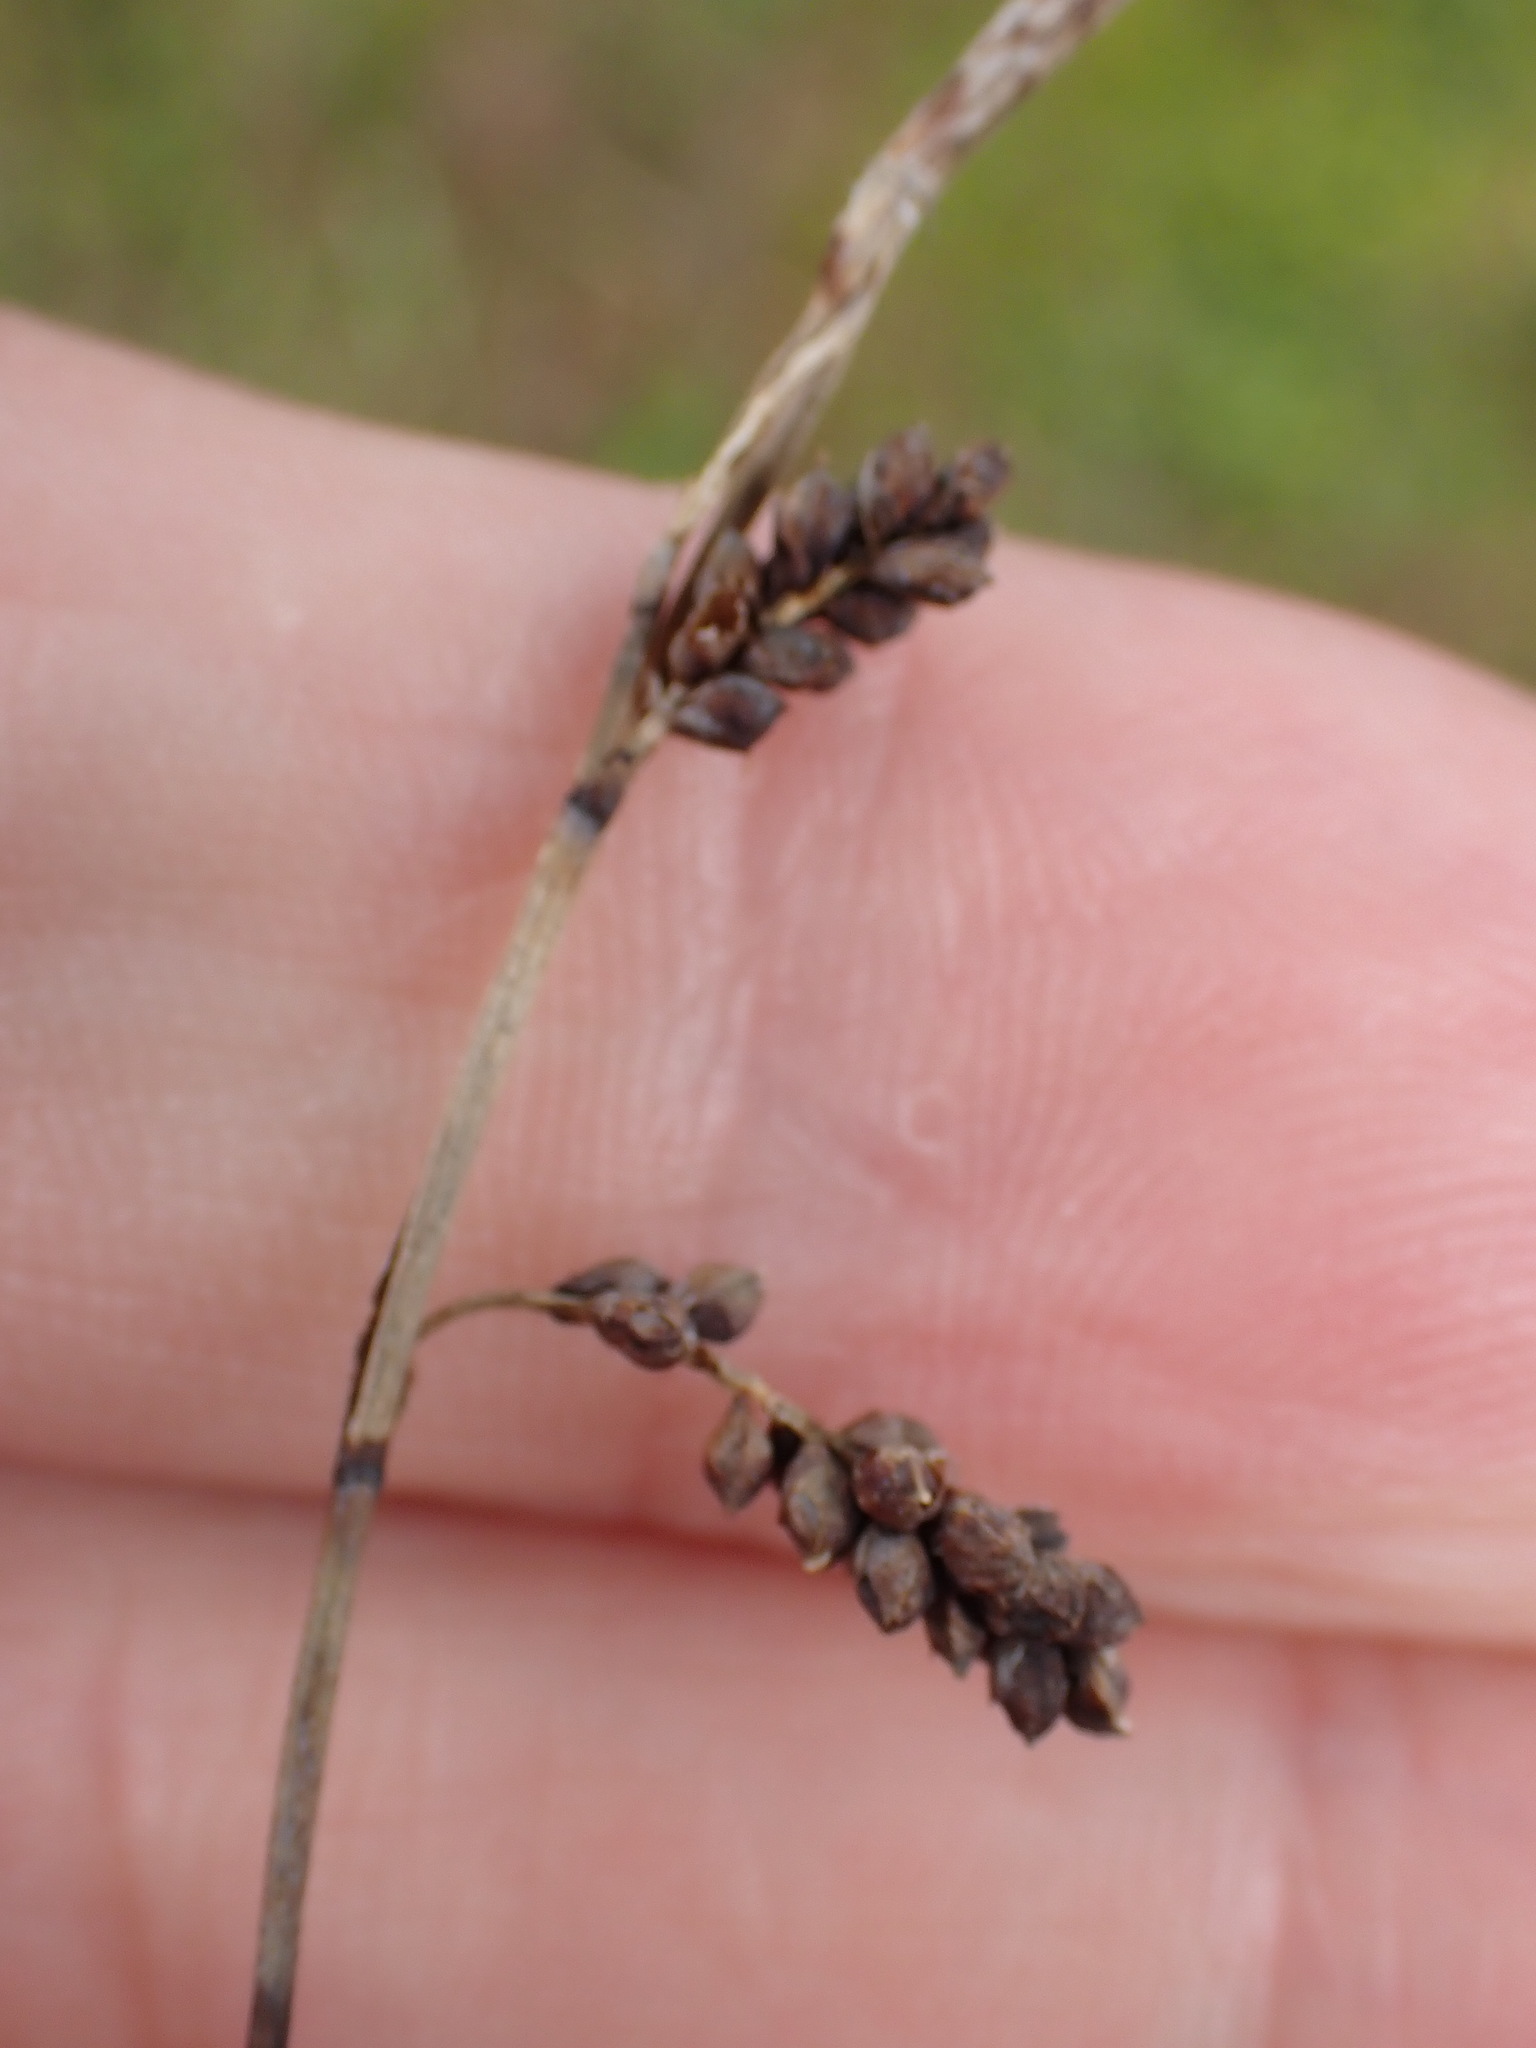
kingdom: Plantae
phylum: Tracheophyta
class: Liliopsida
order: Poales
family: Cyperaceae
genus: Carex
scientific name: Carex flacca
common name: Glaucous sedge
